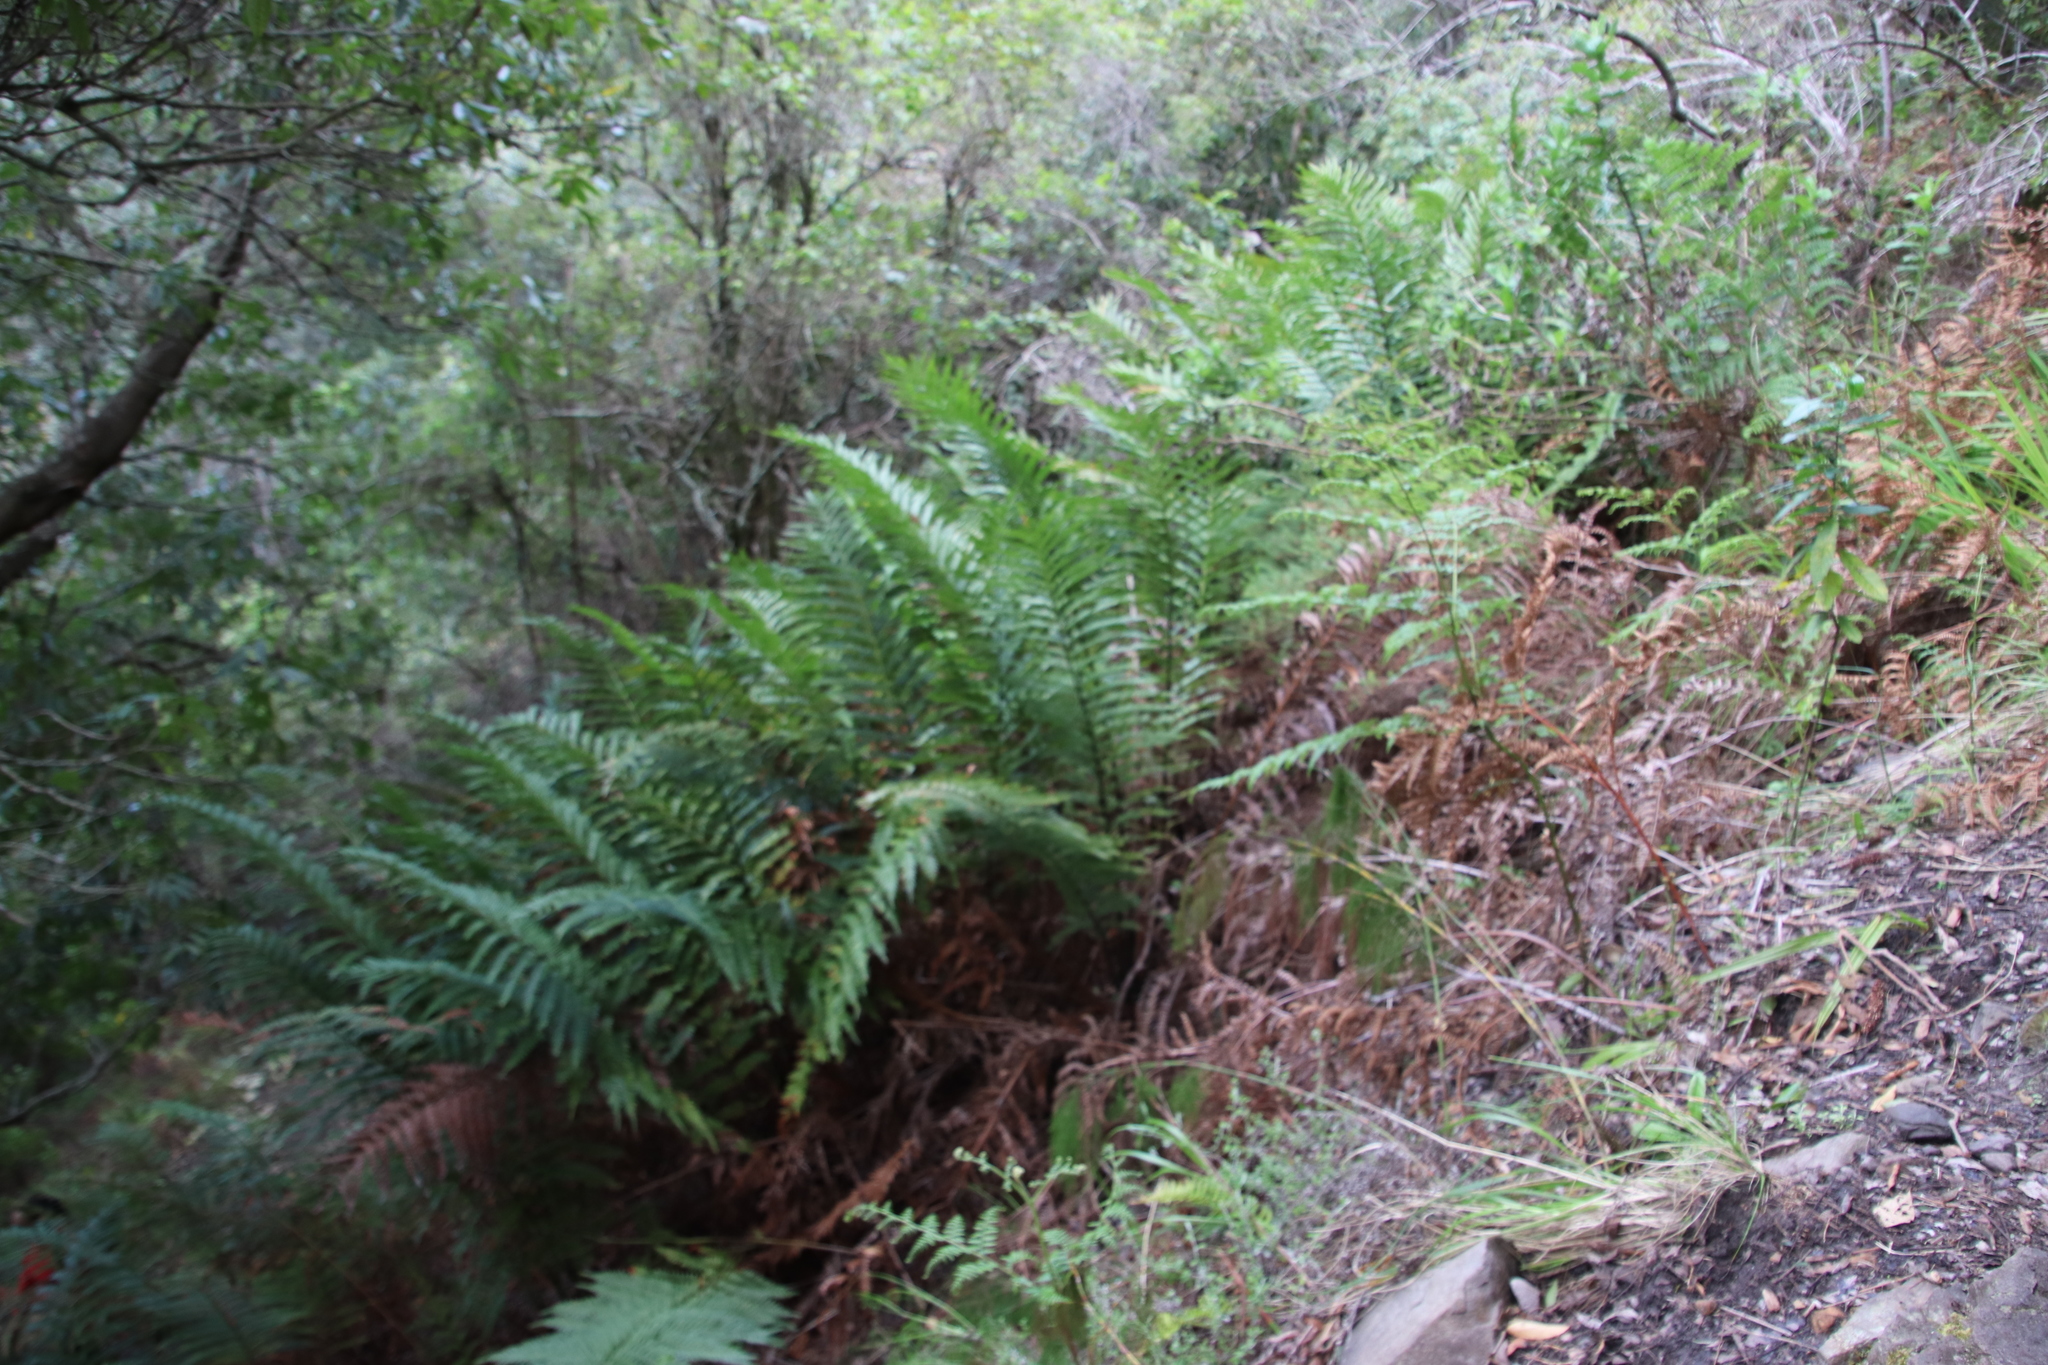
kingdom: Plantae
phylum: Tracheophyta
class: Polypodiopsida
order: Osmundales
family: Osmundaceae
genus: Todea
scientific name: Todea barbara
